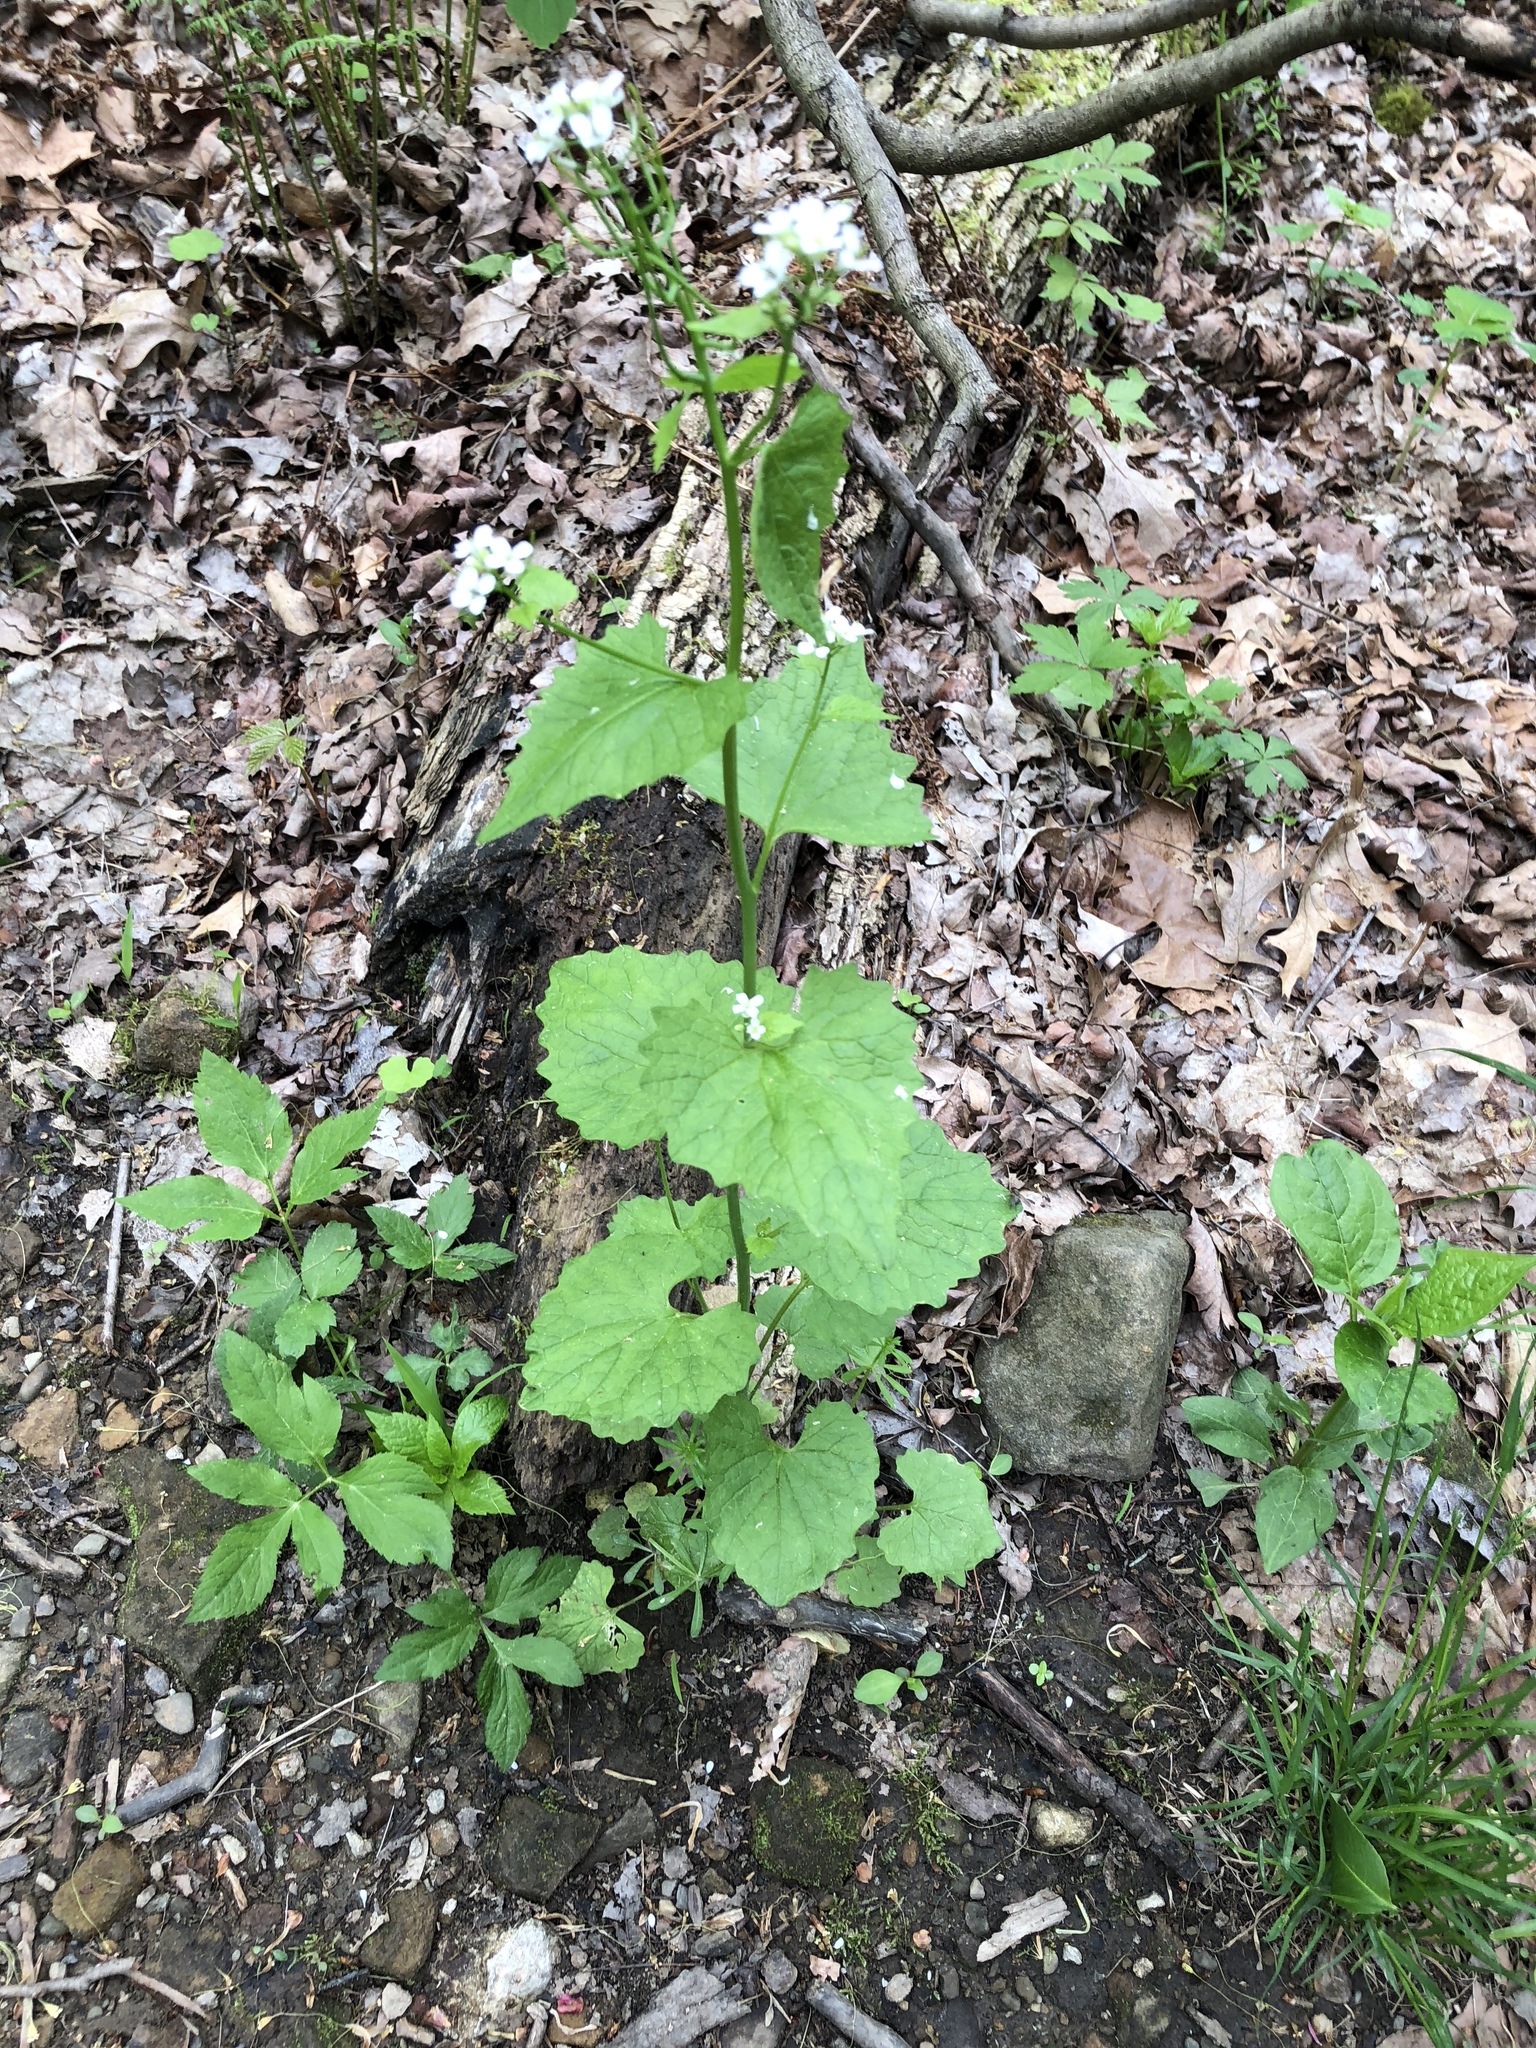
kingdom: Plantae
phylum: Tracheophyta
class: Magnoliopsida
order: Brassicales
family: Brassicaceae
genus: Alliaria
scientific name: Alliaria petiolata
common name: Garlic mustard
